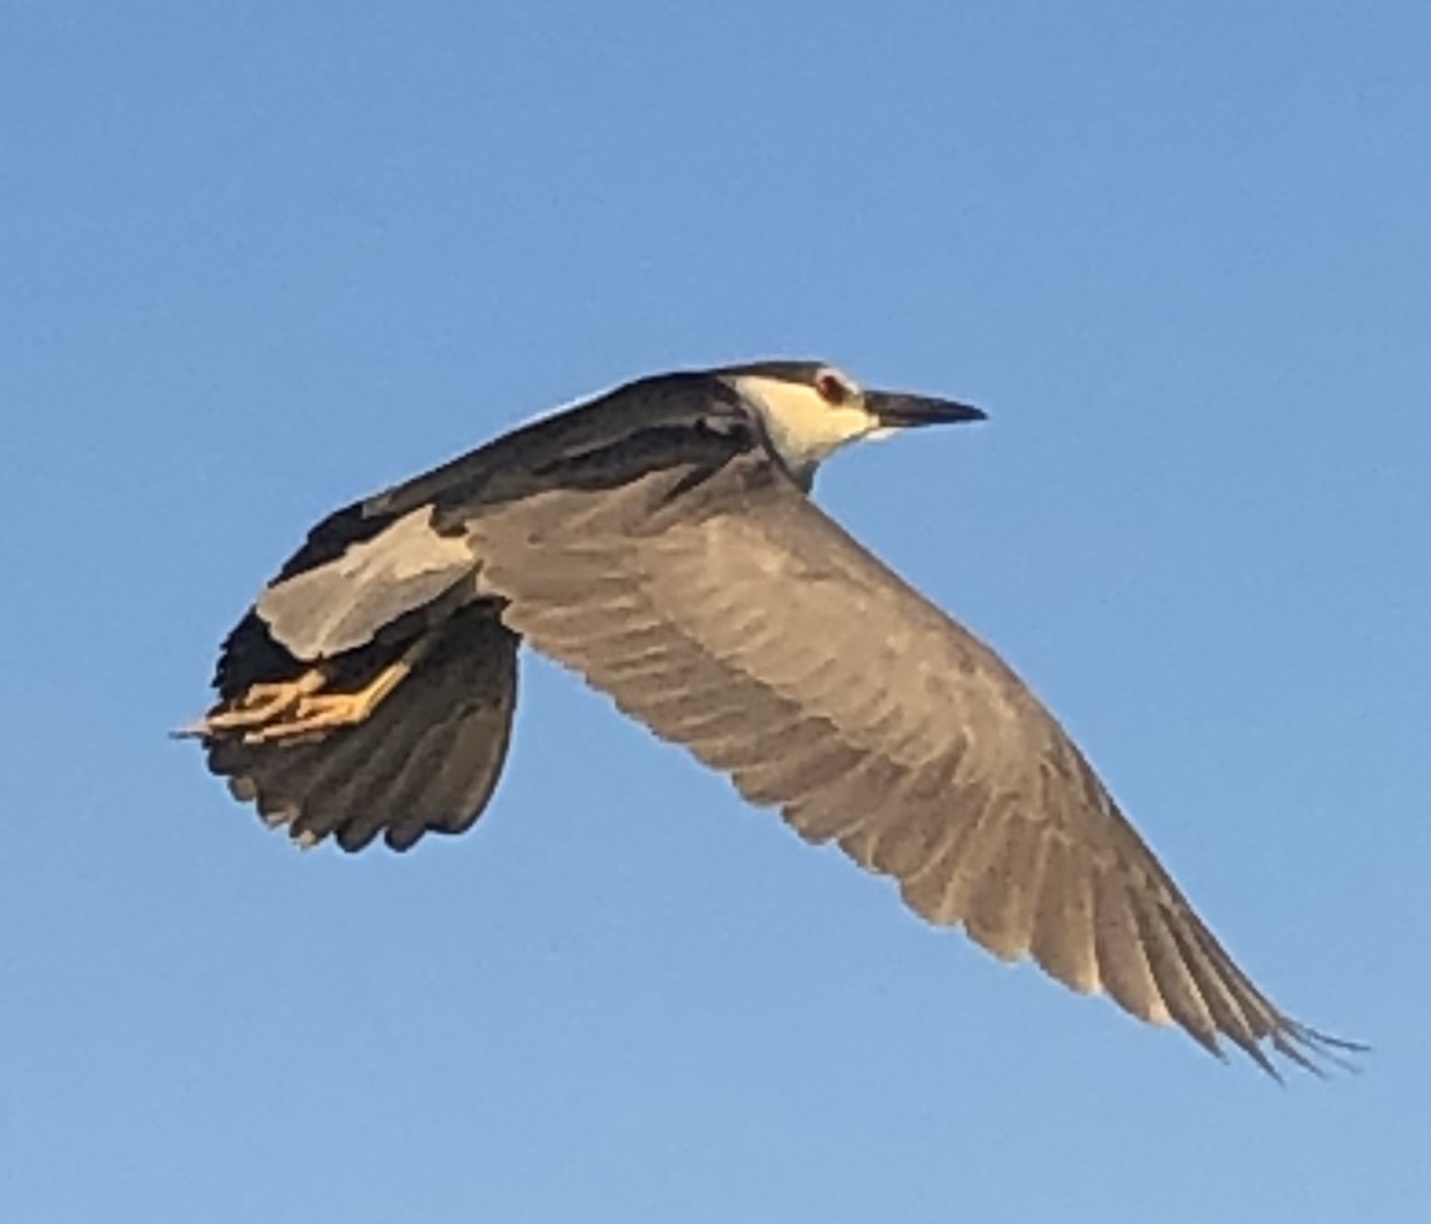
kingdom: Animalia
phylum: Chordata
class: Aves
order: Pelecaniformes
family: Ardeidae
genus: Nycticorax
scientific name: Nycticorax nycticorax
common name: Black-crowned night heron
